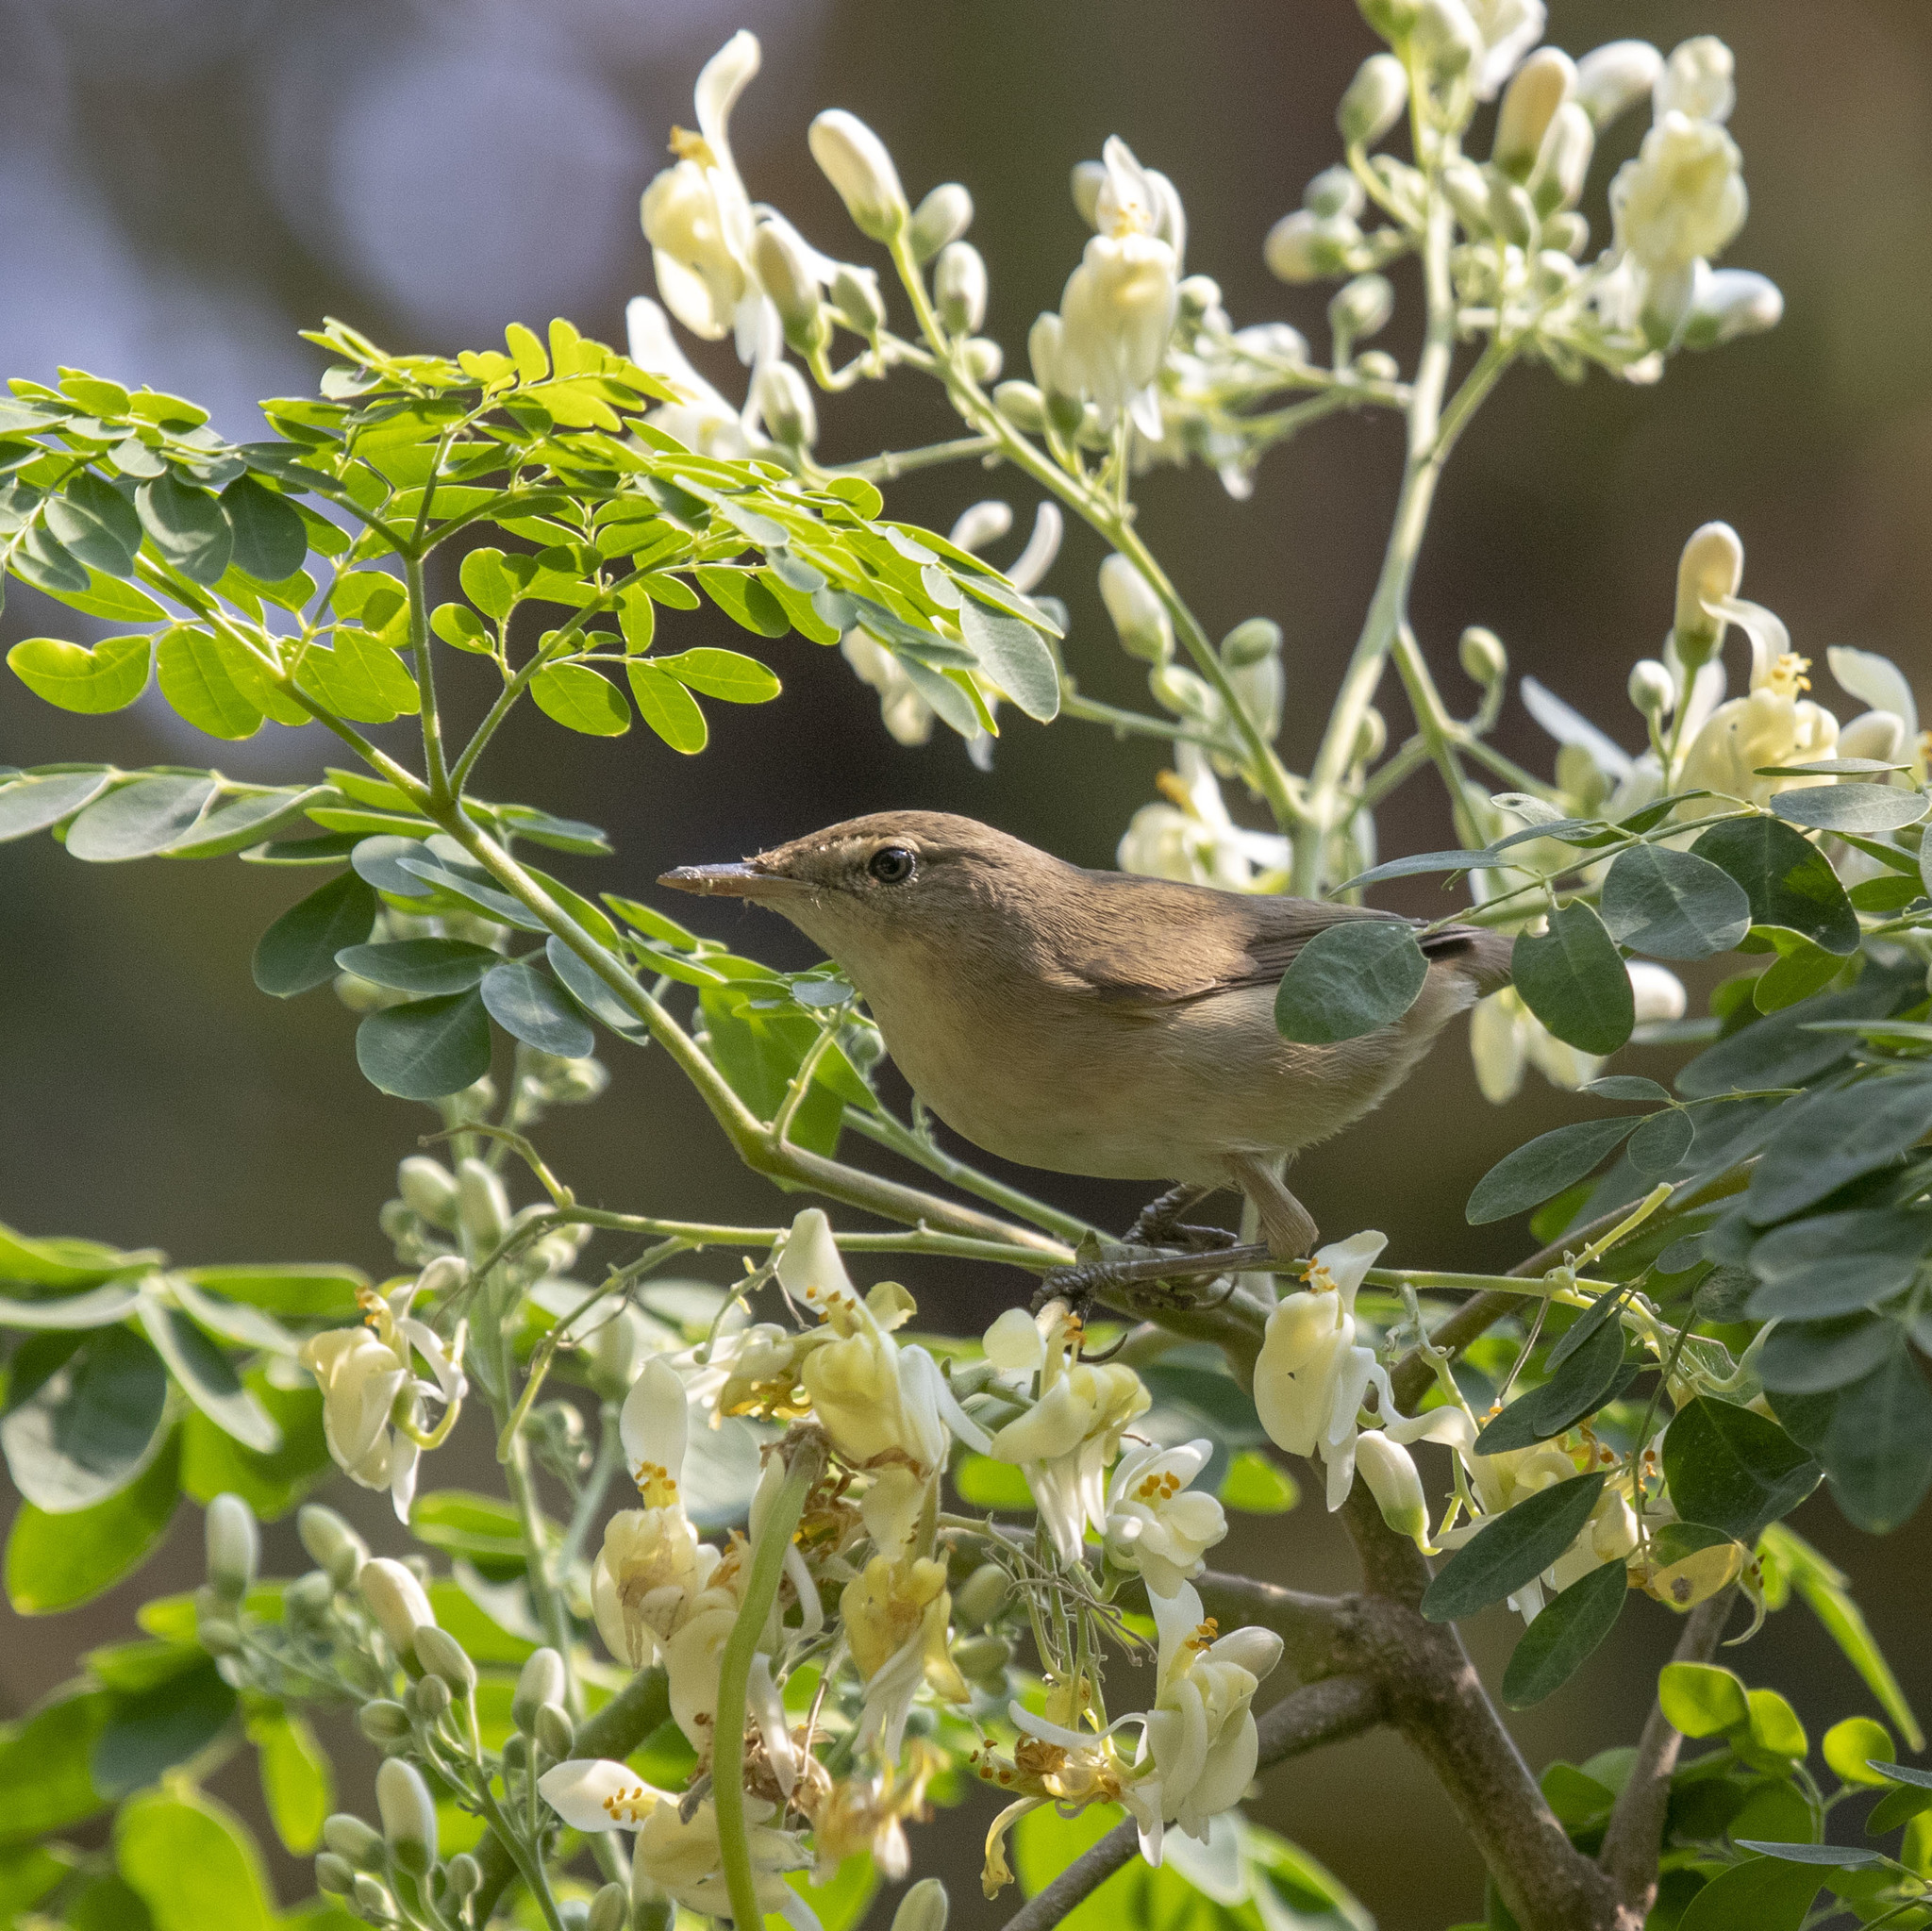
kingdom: Animalia
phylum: Chordata
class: Aves
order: Passeriformes
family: Acrocephalidae
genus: Acrocephalus
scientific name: Acrocephalus dumetorum
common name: Blyth's reed warbler
